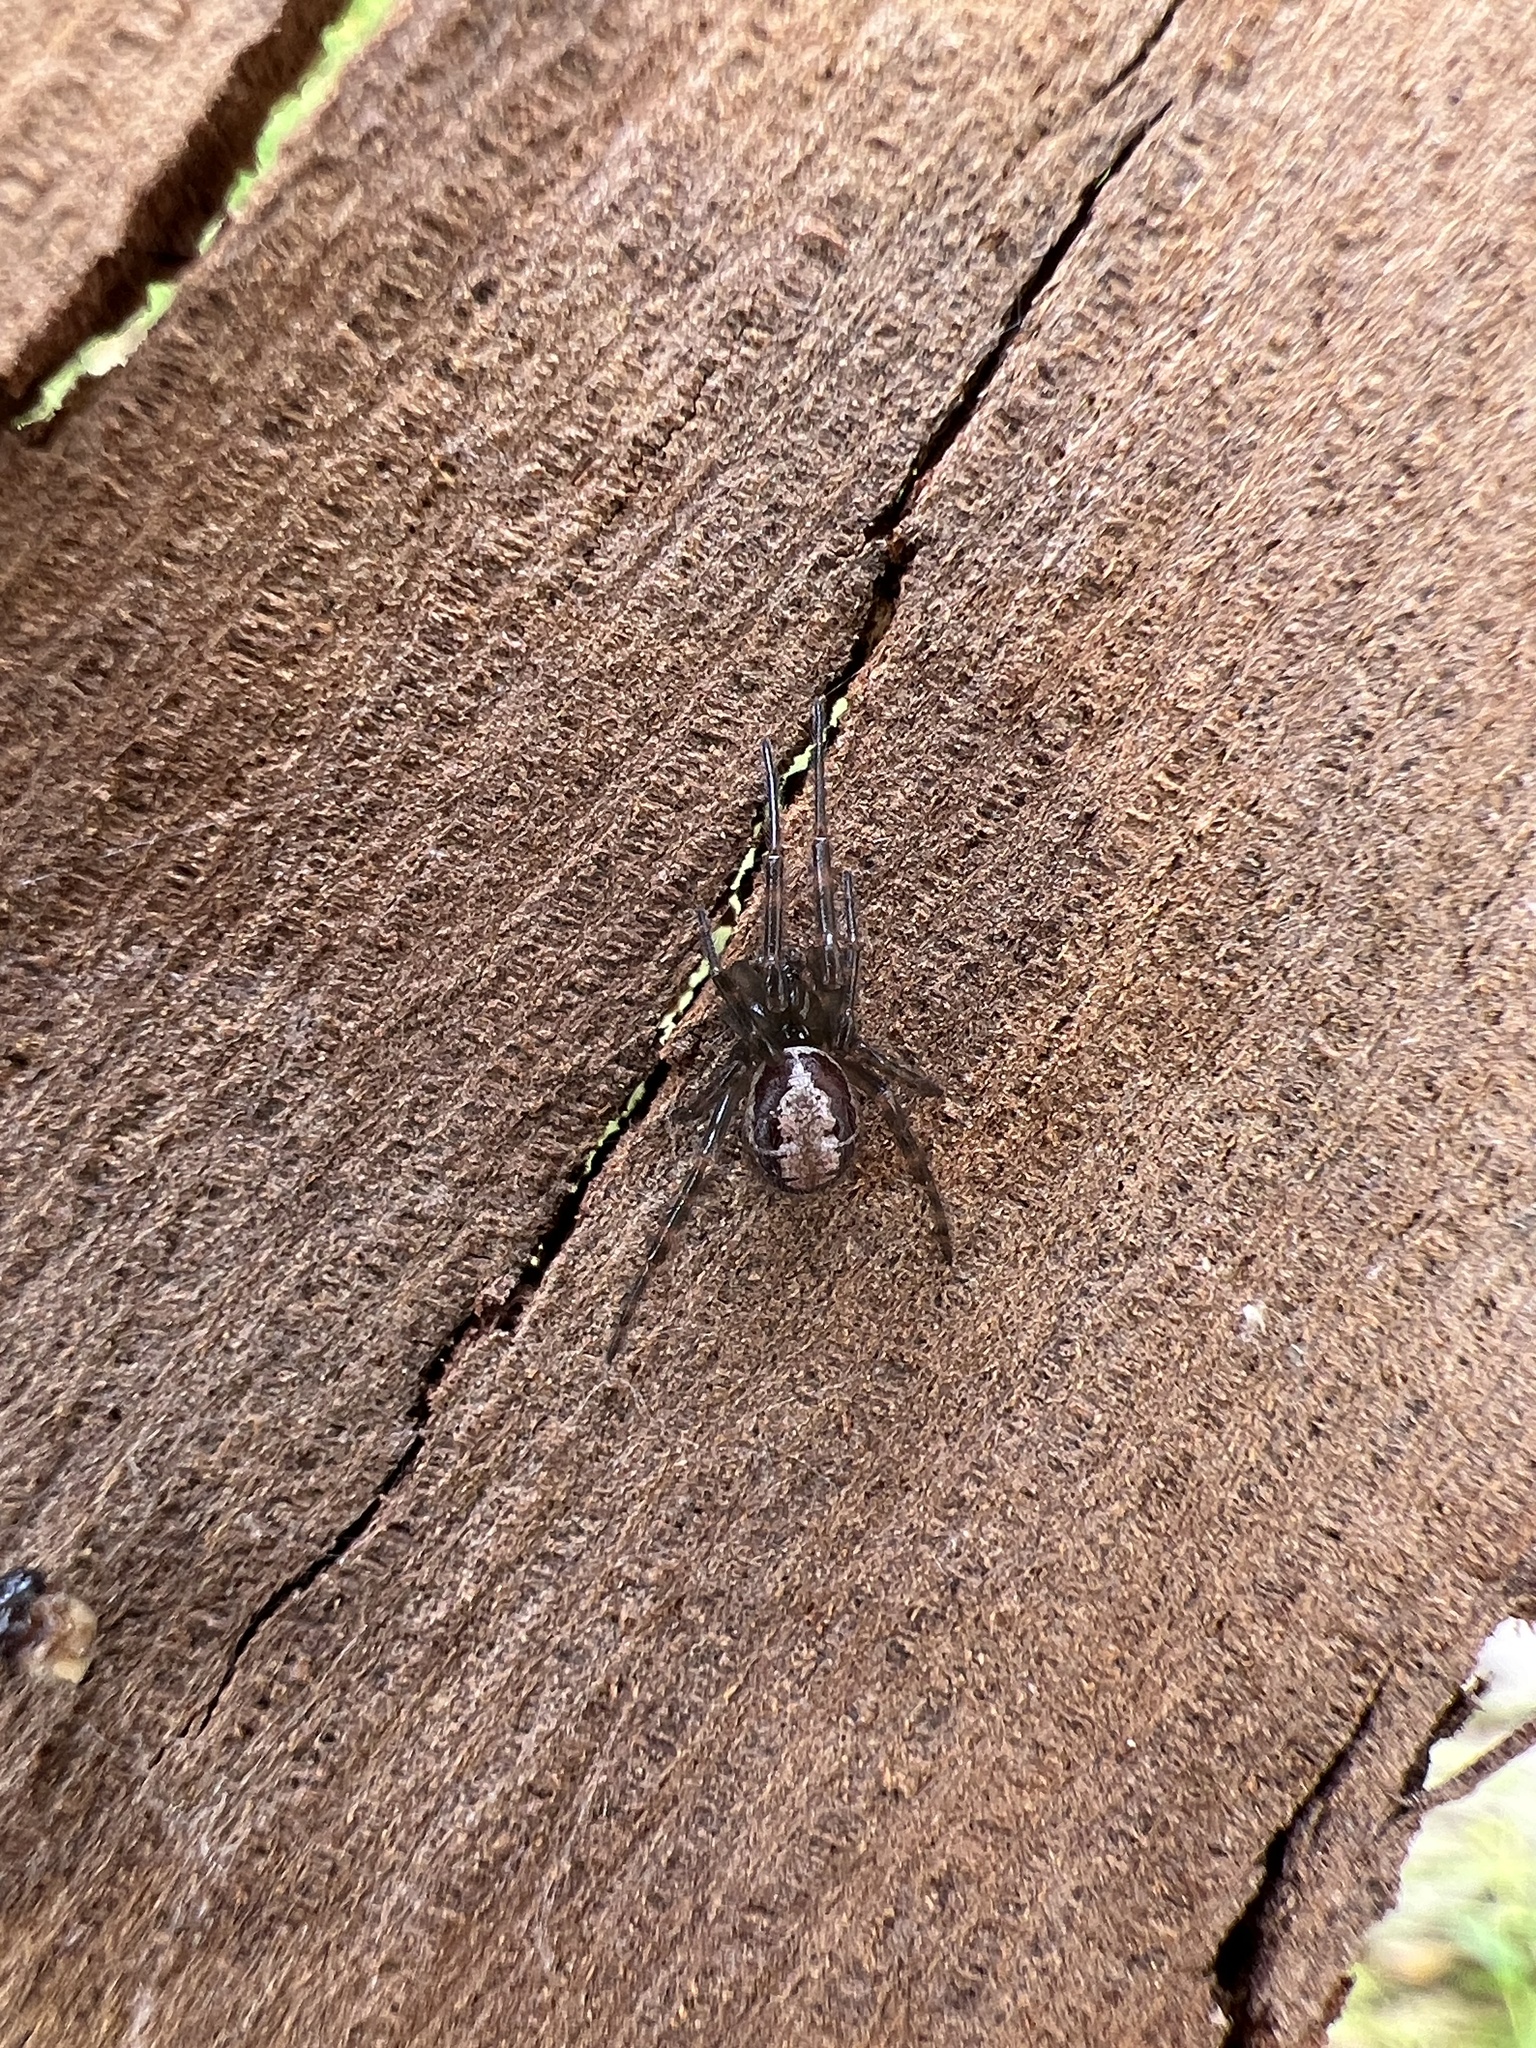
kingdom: Animalia
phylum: Arthropoda
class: Arachnida
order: Araneae
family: Theridiidae
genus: Steatoda
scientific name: Steatoda nobilis
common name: Cobweb weaver
